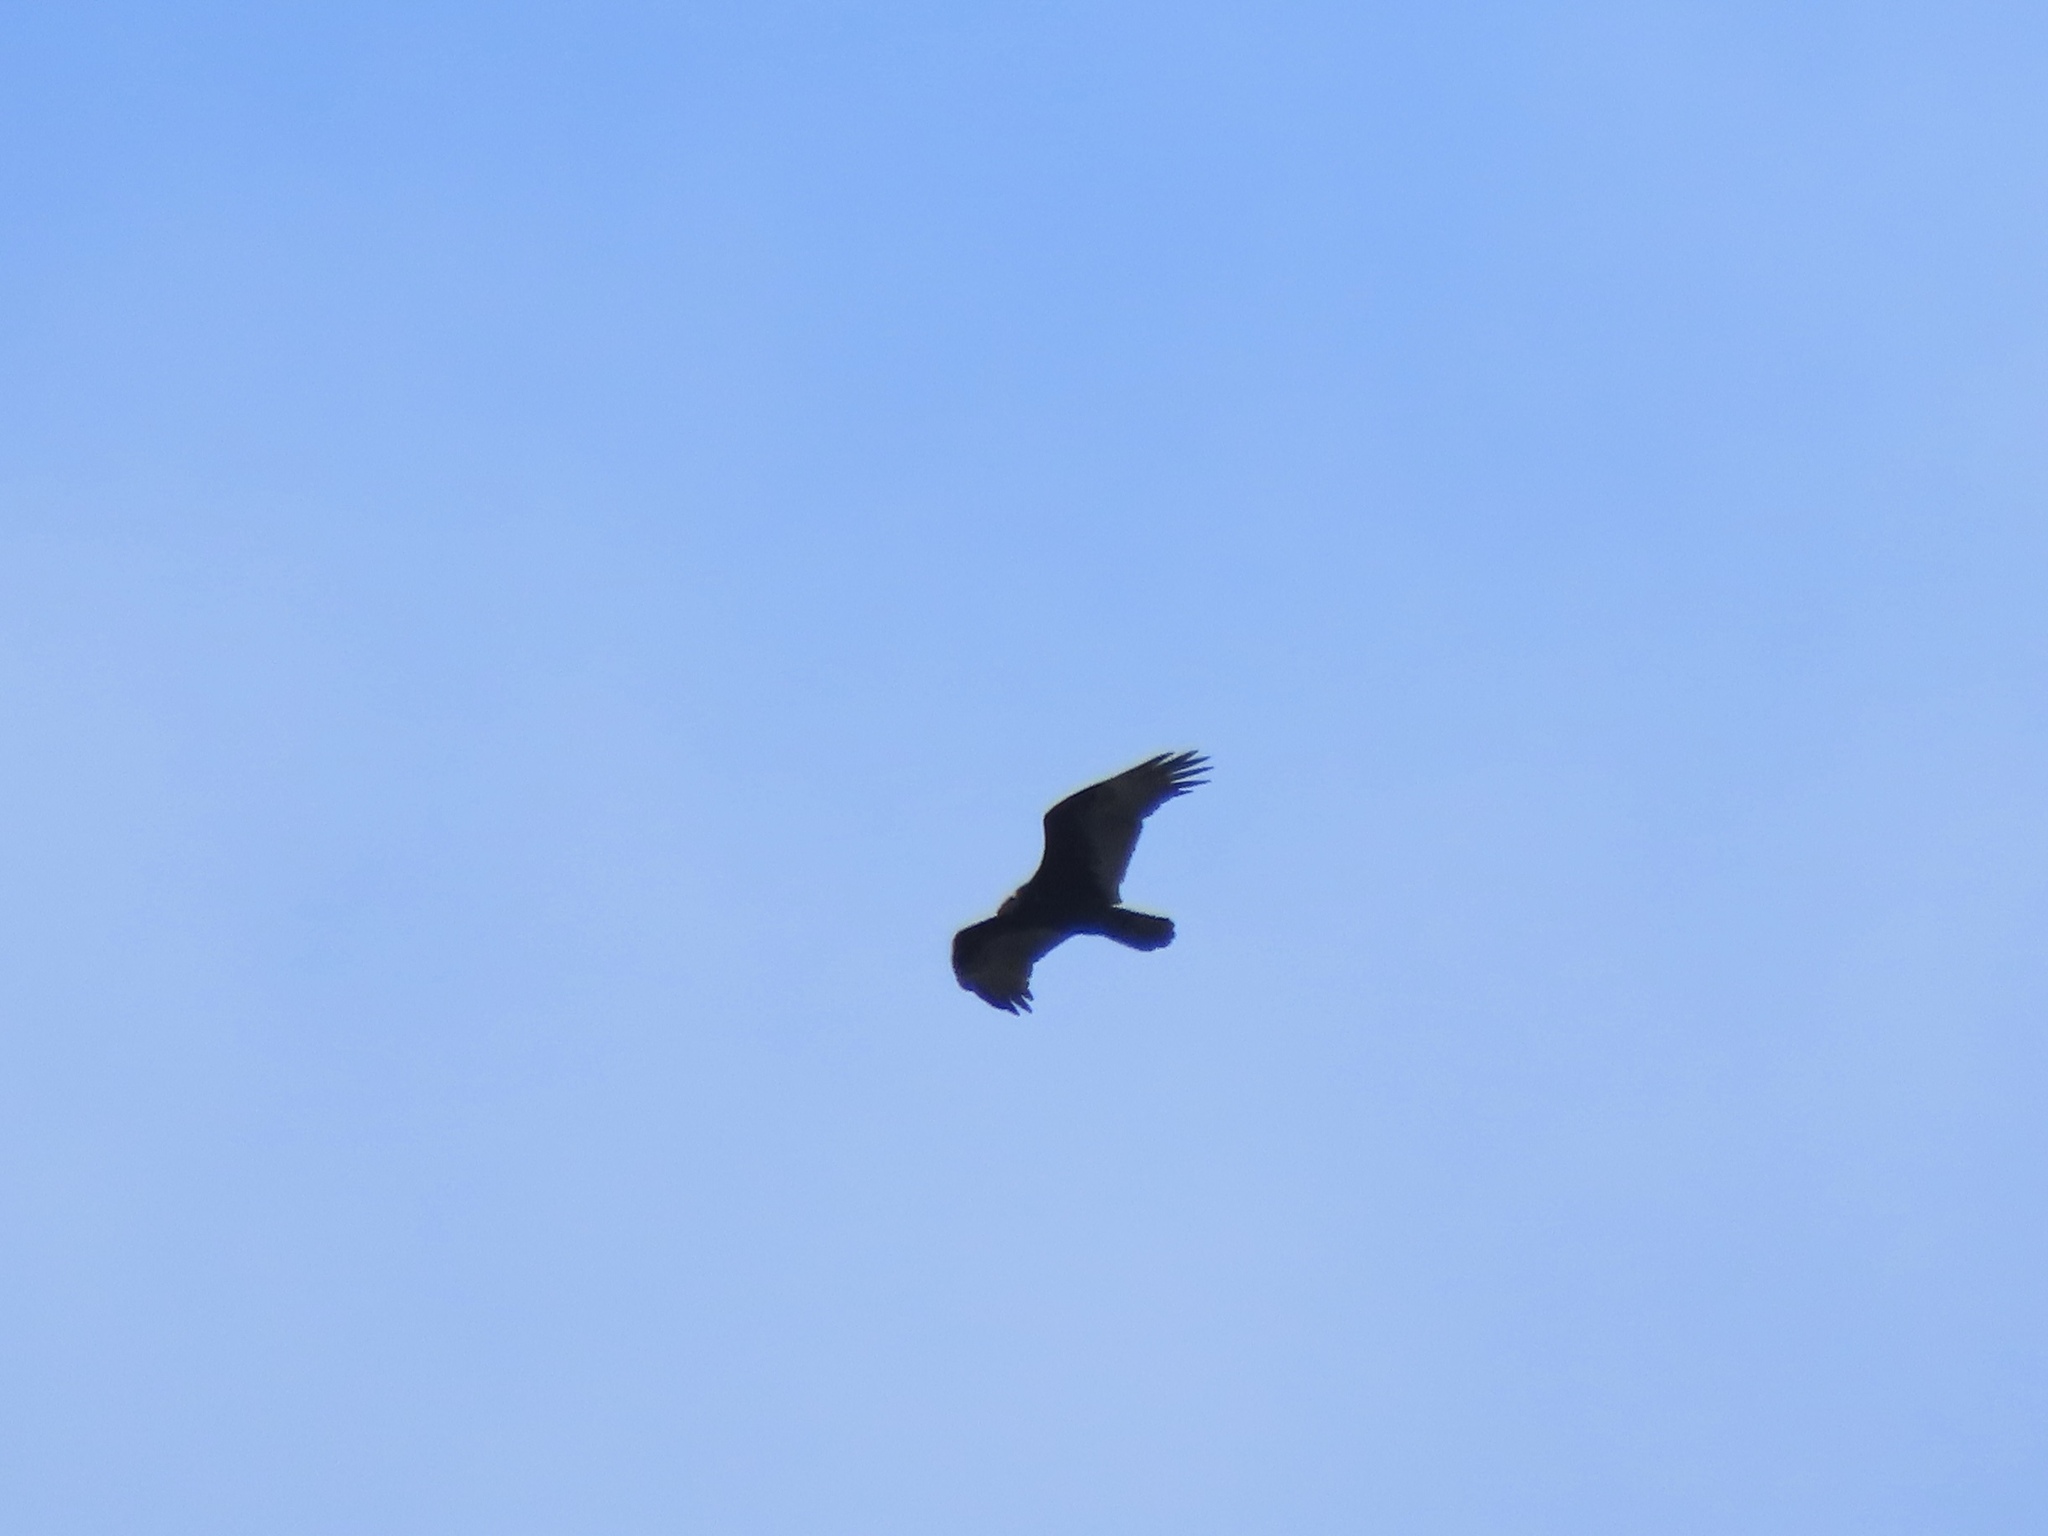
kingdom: Animalia
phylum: Chordata
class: Aves
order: Accipitriformes
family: Cathartidae
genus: Cathartes
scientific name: Cathartes aura
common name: Turkey vulture
